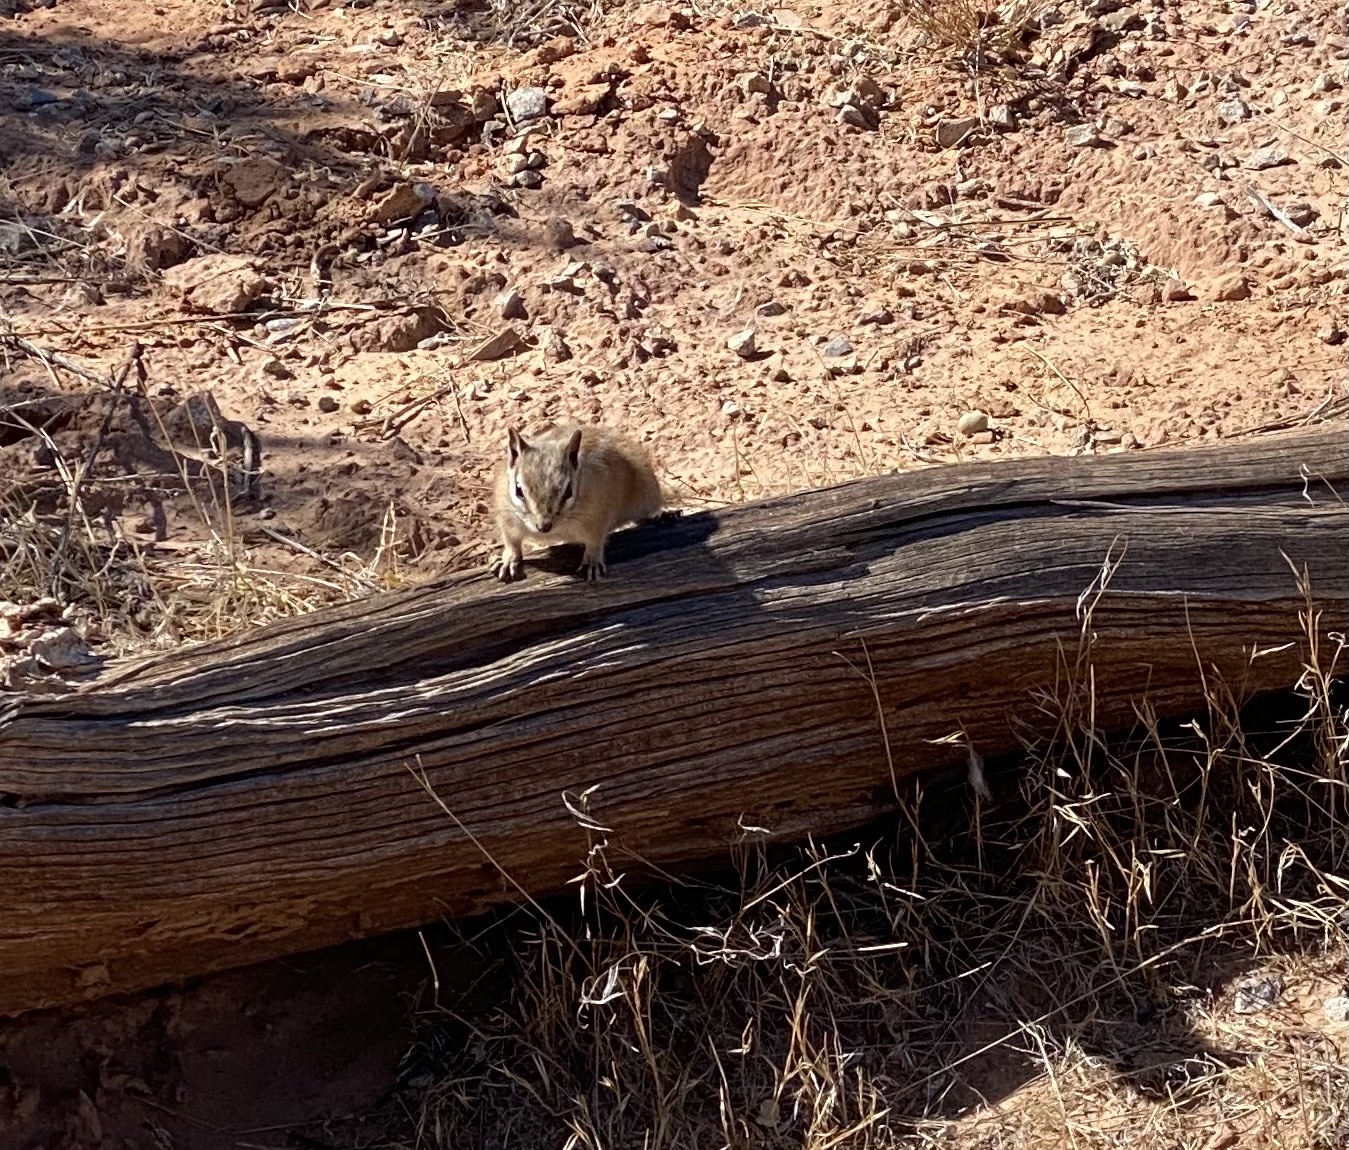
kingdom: Animalia
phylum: Chordata
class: Mammalia
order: Rodentia
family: Sciuridae
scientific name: Sciuridae
